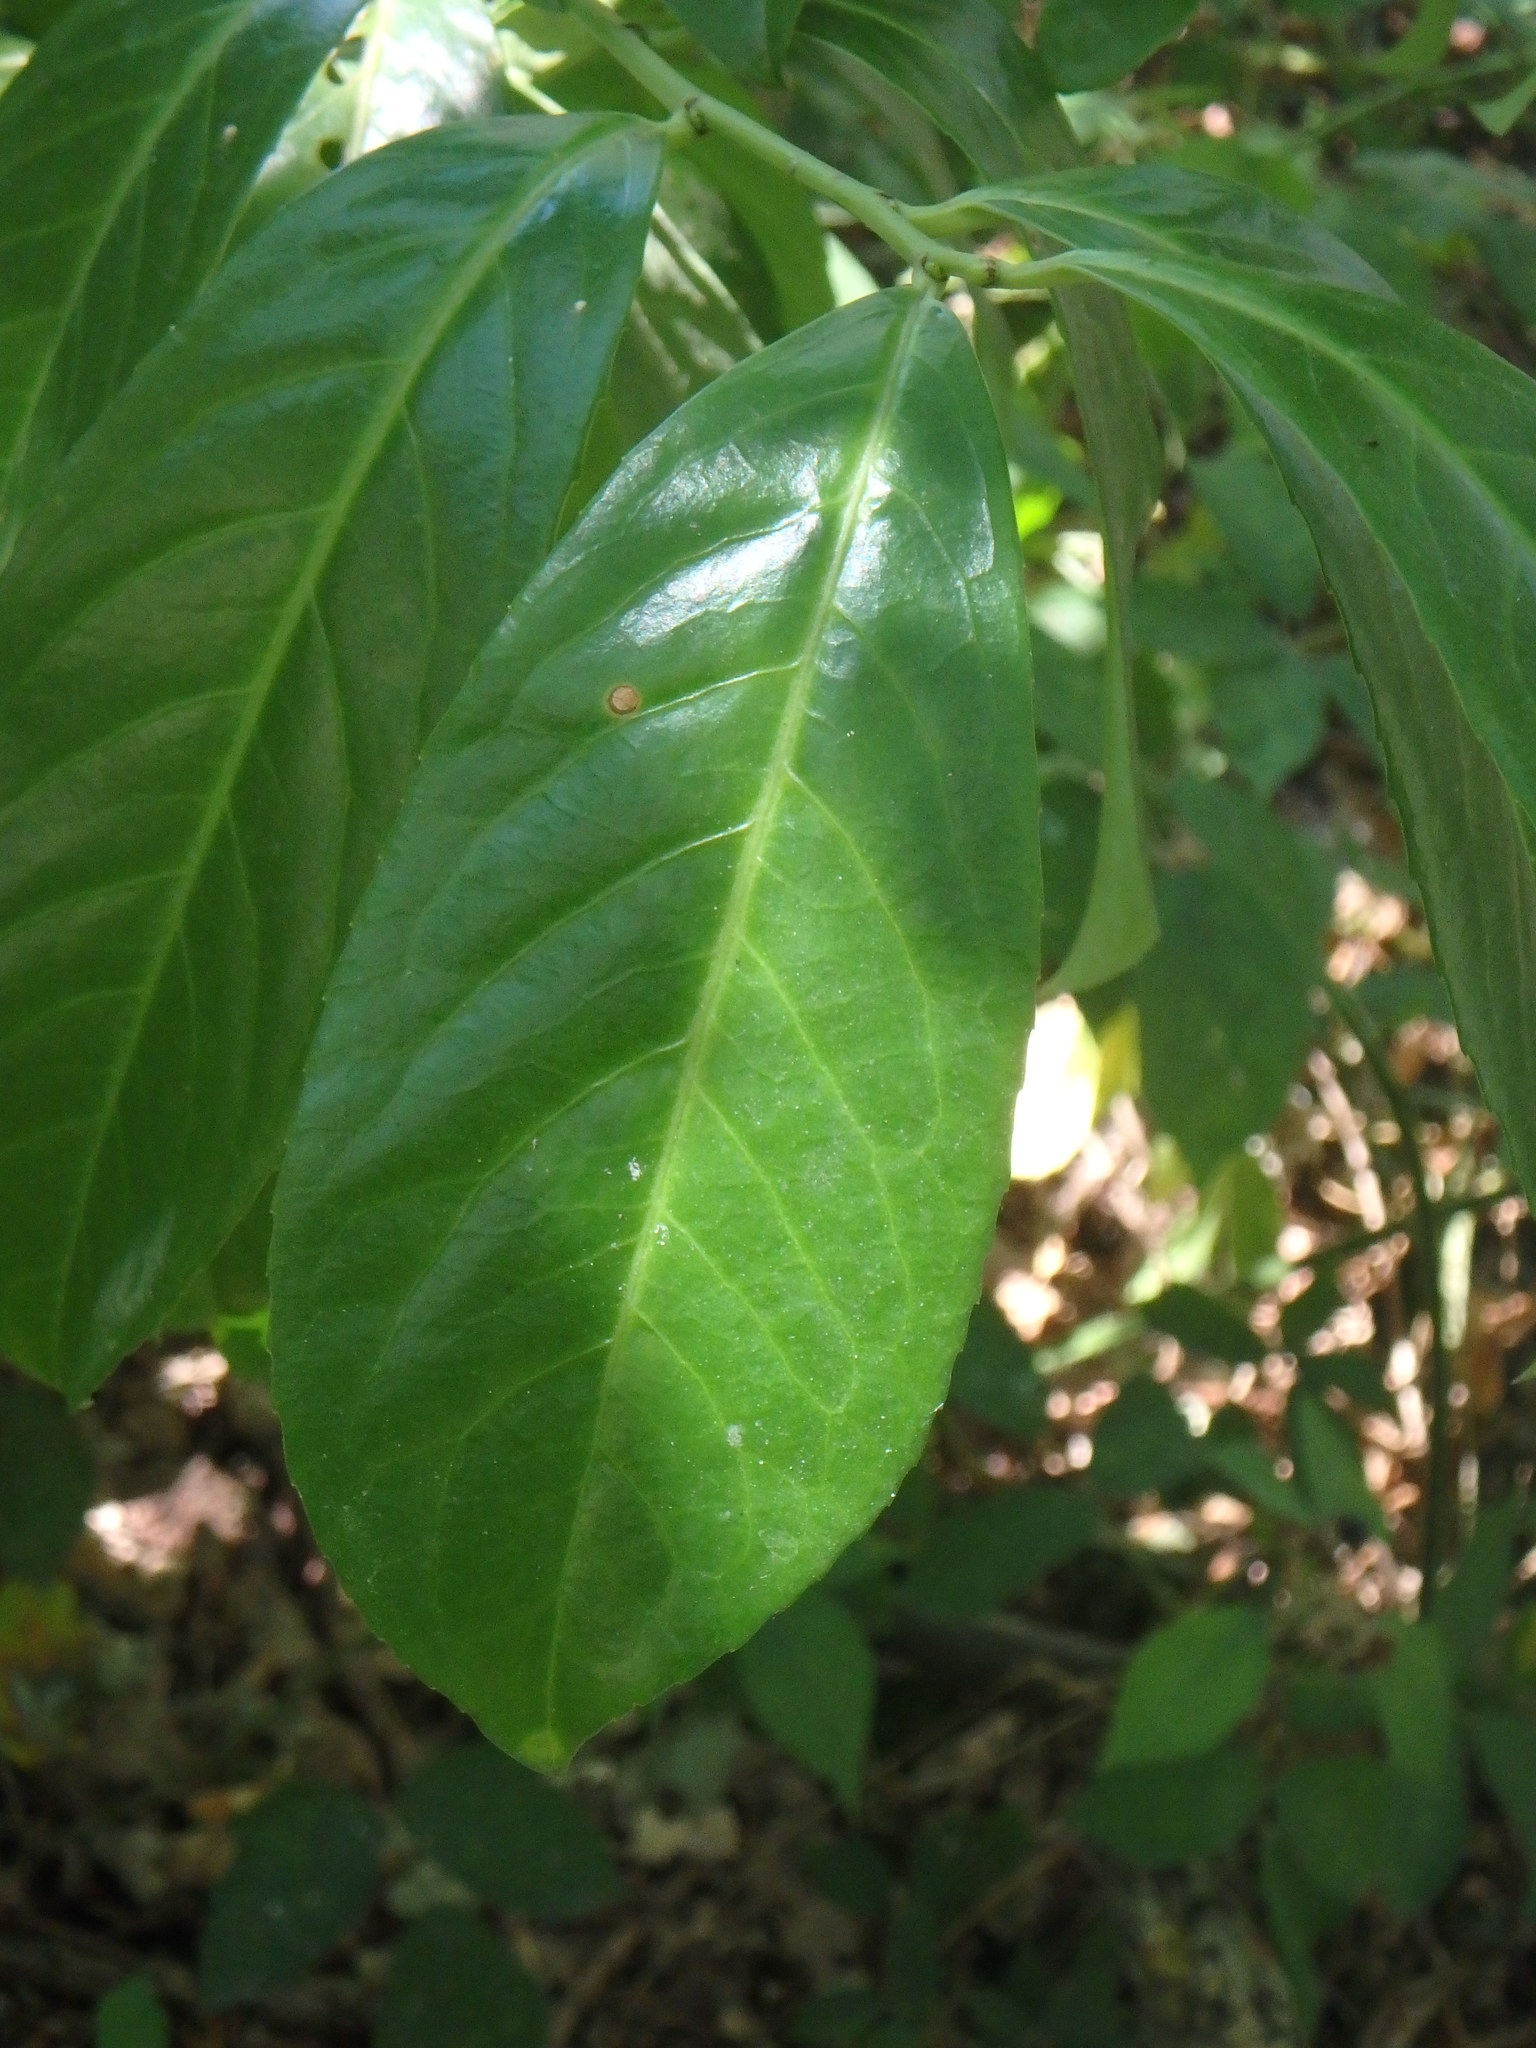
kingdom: Plantae
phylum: Tracheophyta
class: Magnoliopsida
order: Rosales
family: Rosaceae
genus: Prunus
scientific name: Prunus laurocerasus
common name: Cherry laurel
